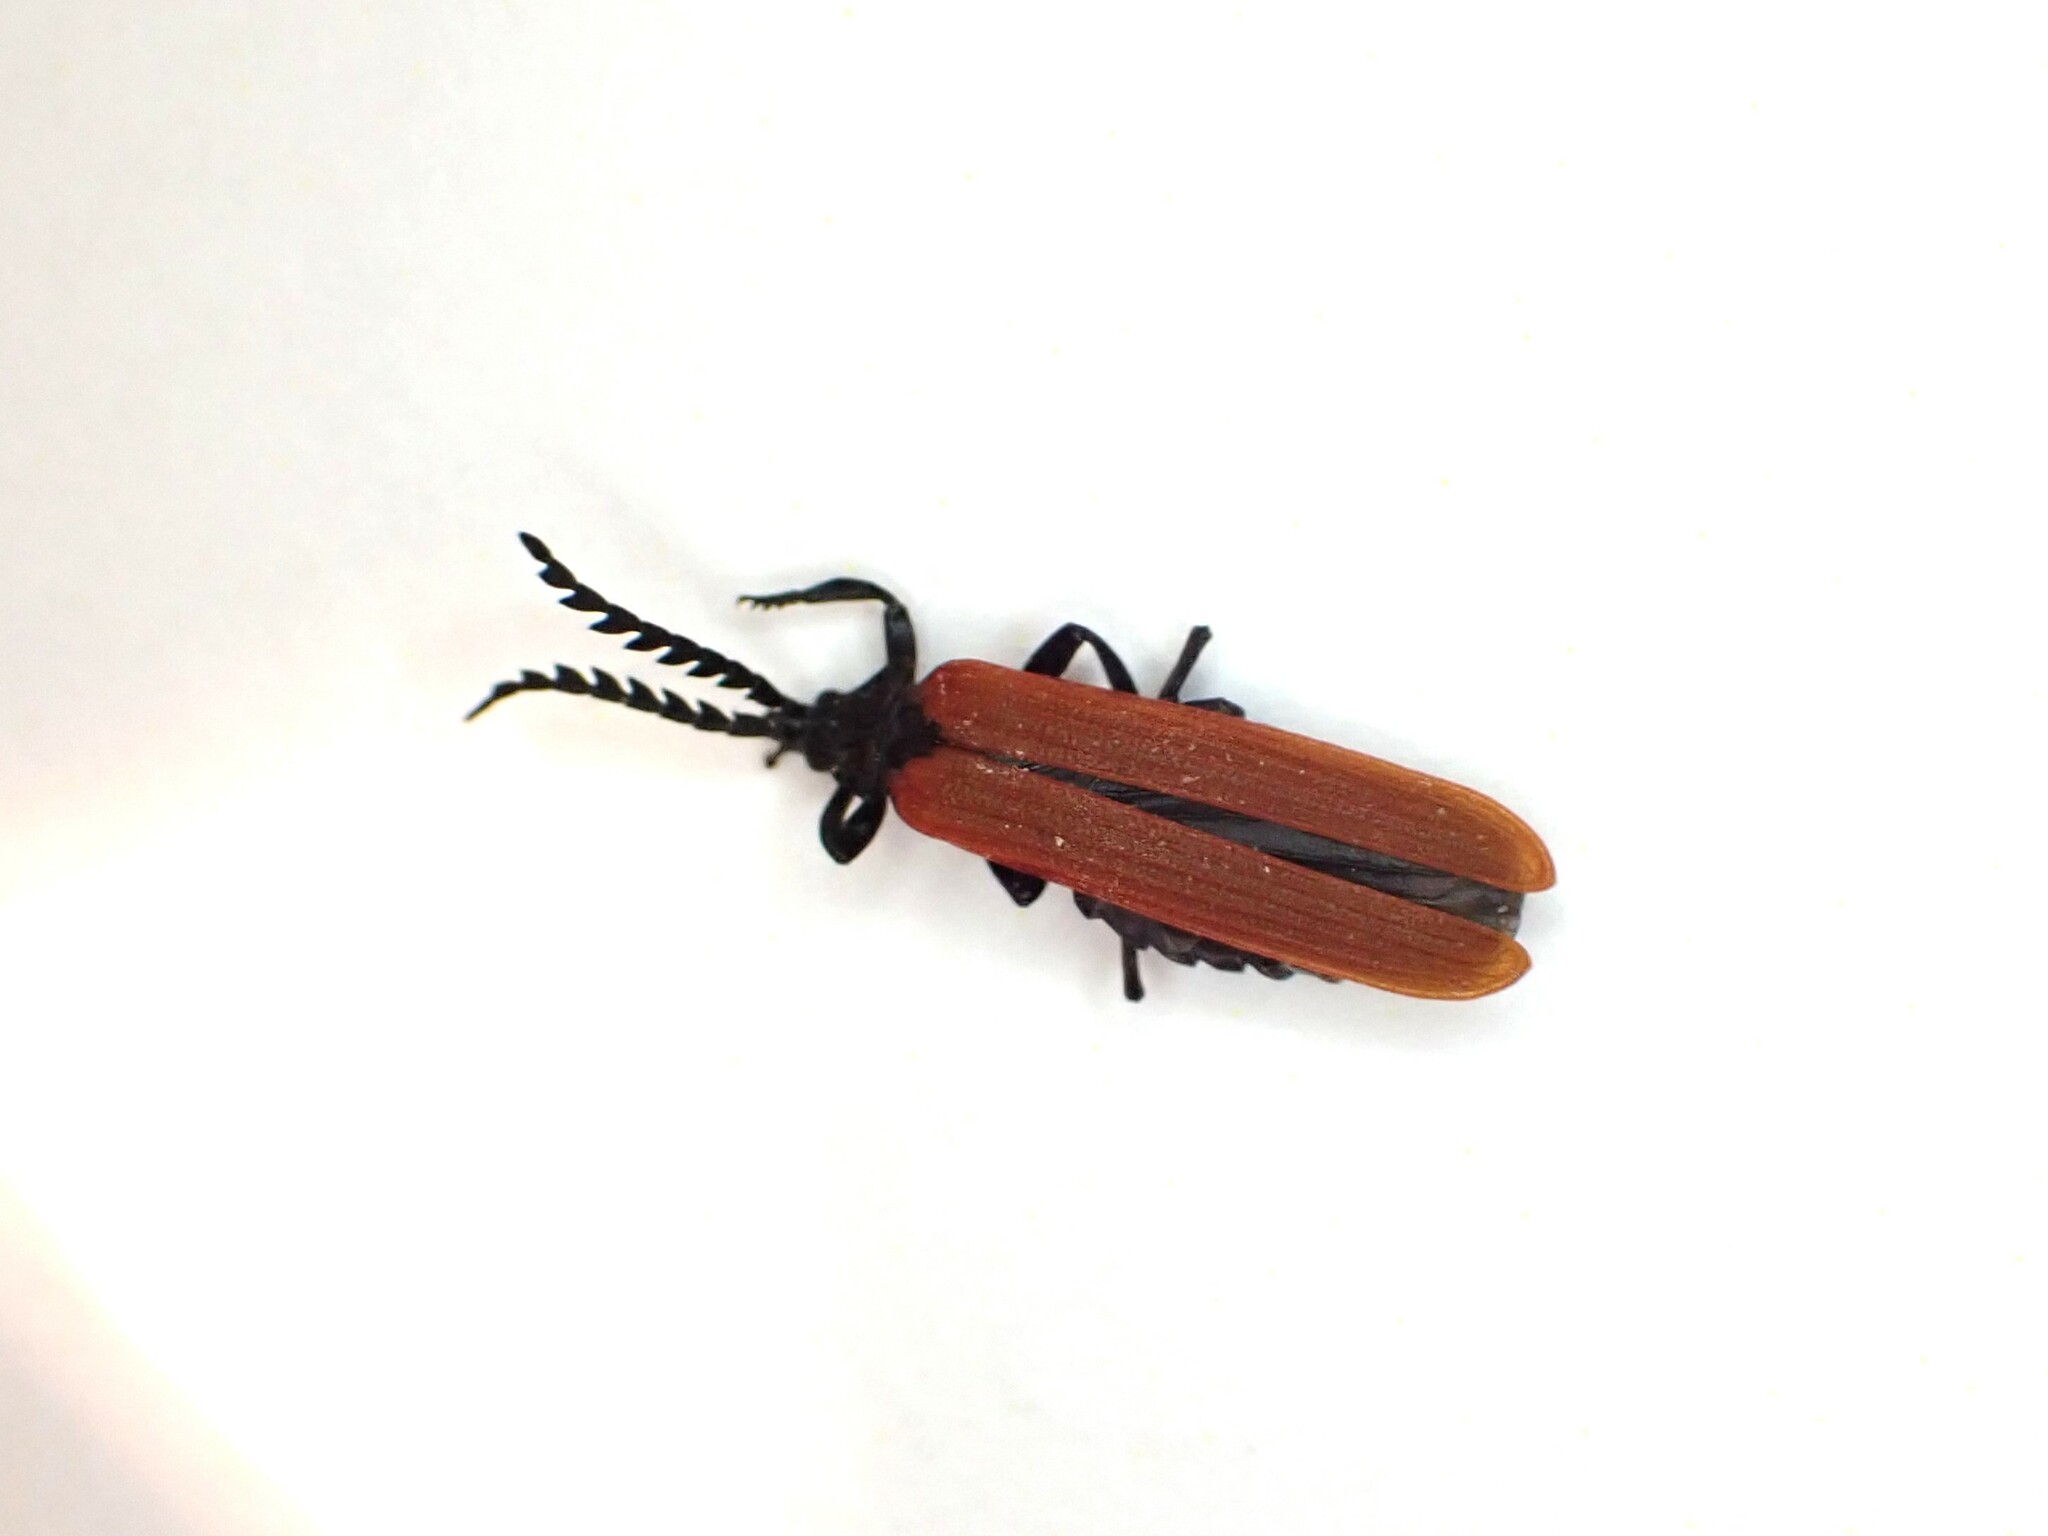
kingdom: Animalia
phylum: Arthropoda
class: Insecta
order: Coleoptera
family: Lycidae
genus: Porrostoma
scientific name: Porrostoma rufipenne
